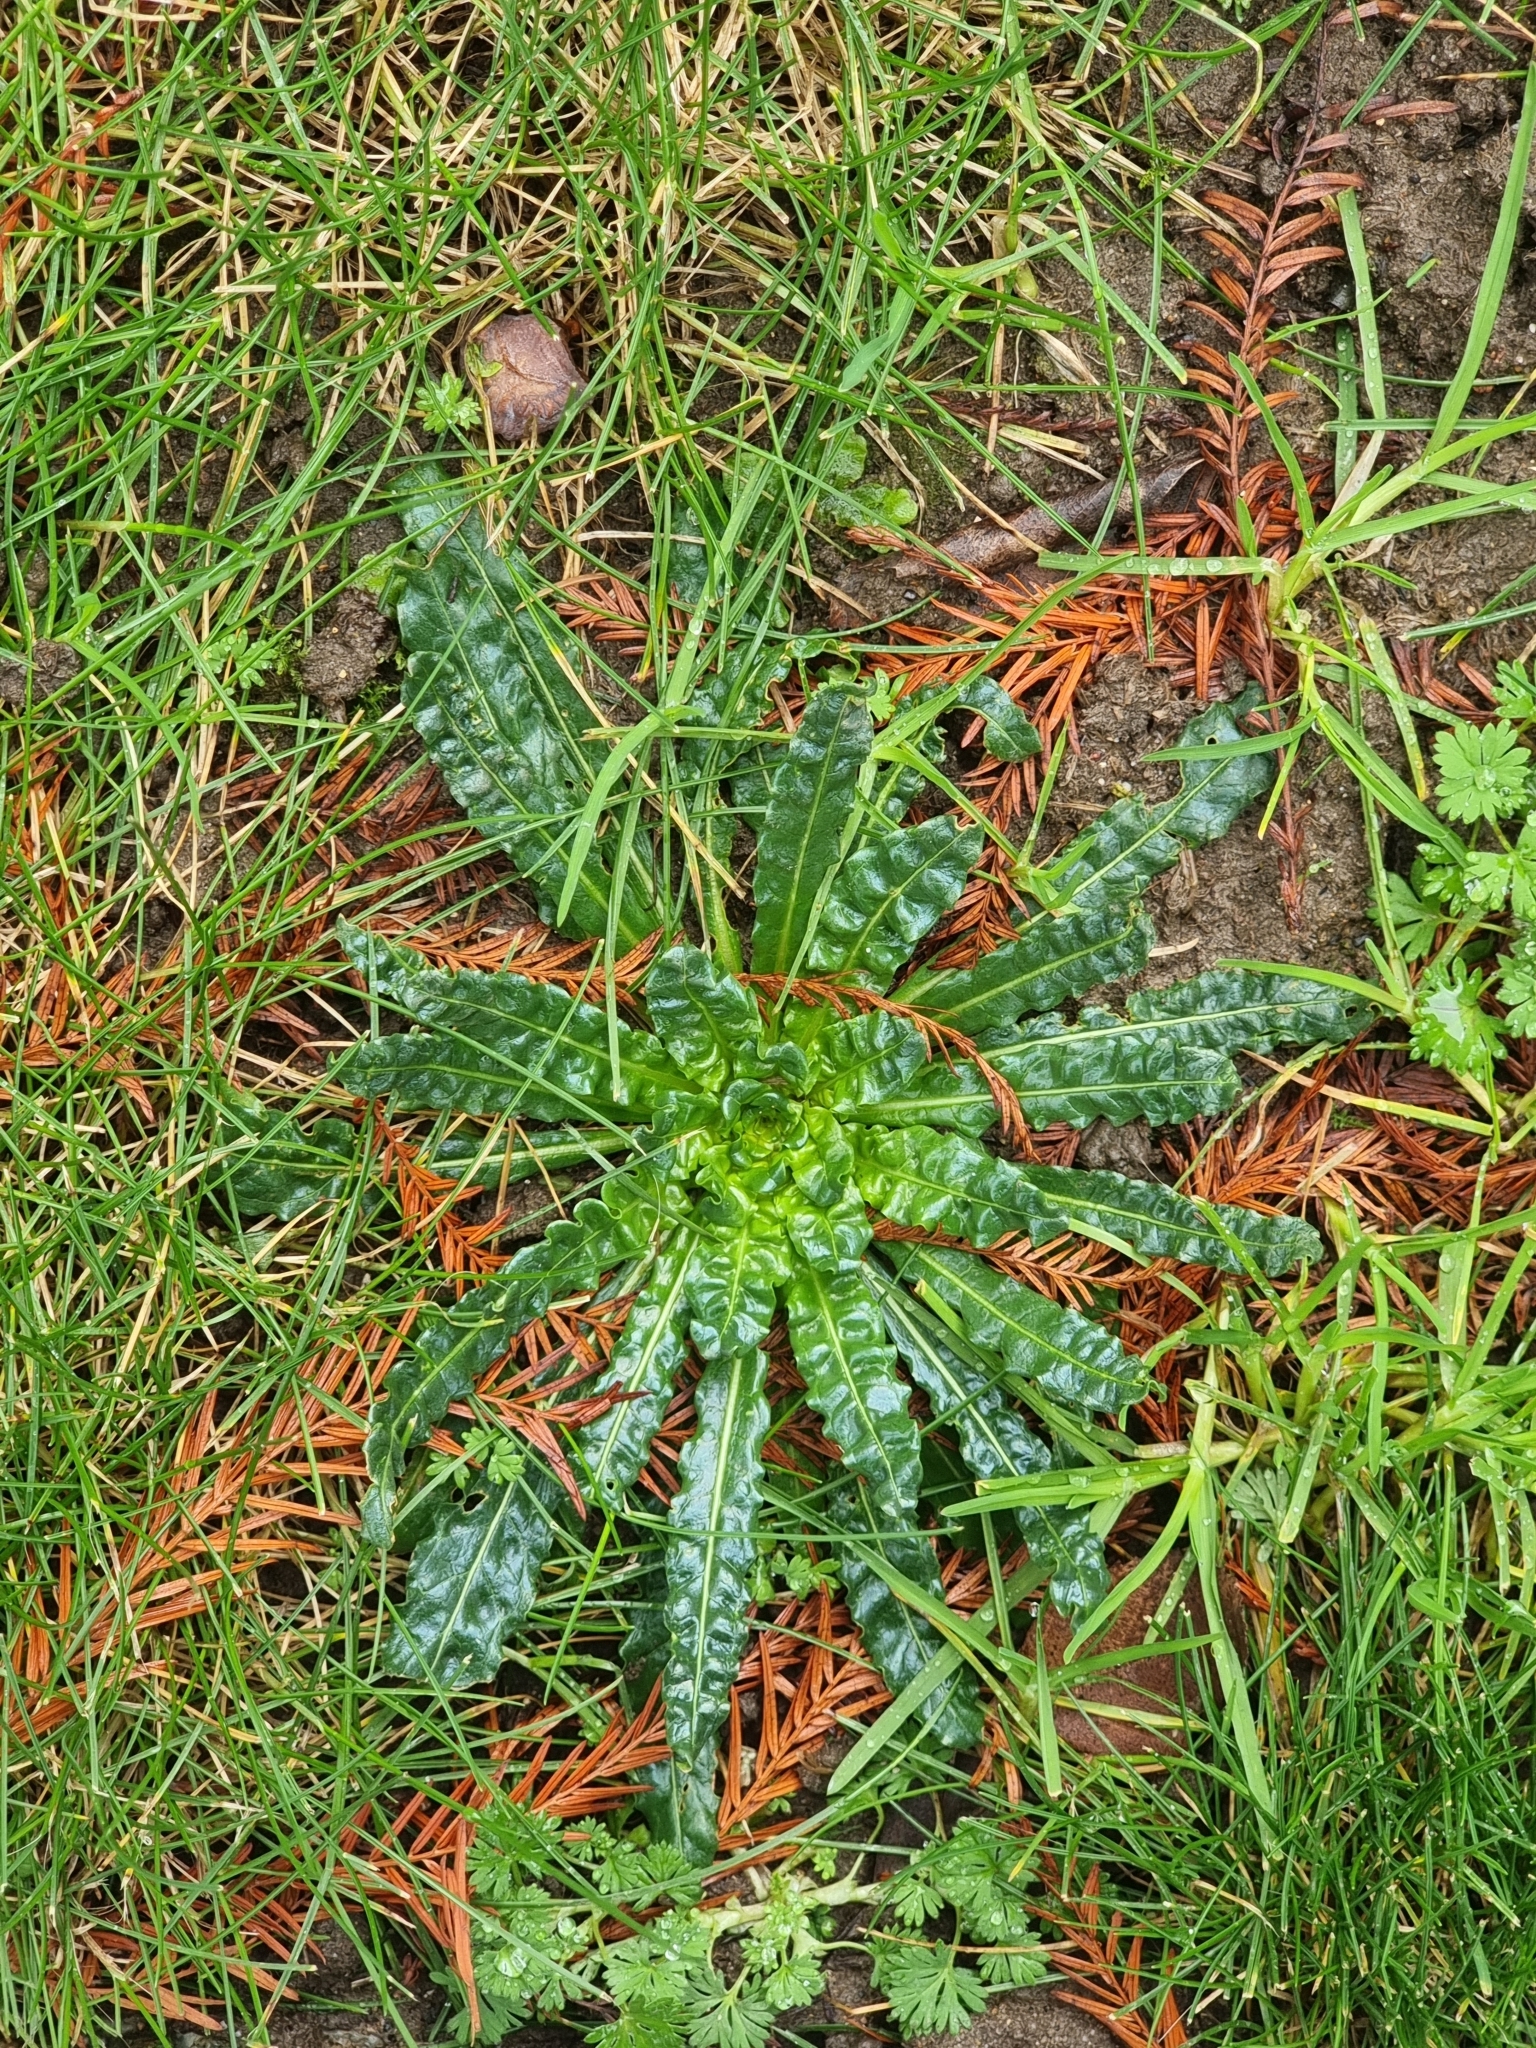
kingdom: Plantae
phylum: Tracheophyta
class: Magnoliopsida
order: Brassicales
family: Resedaceae
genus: Reseda
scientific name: Reseda luteola
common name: Weld
